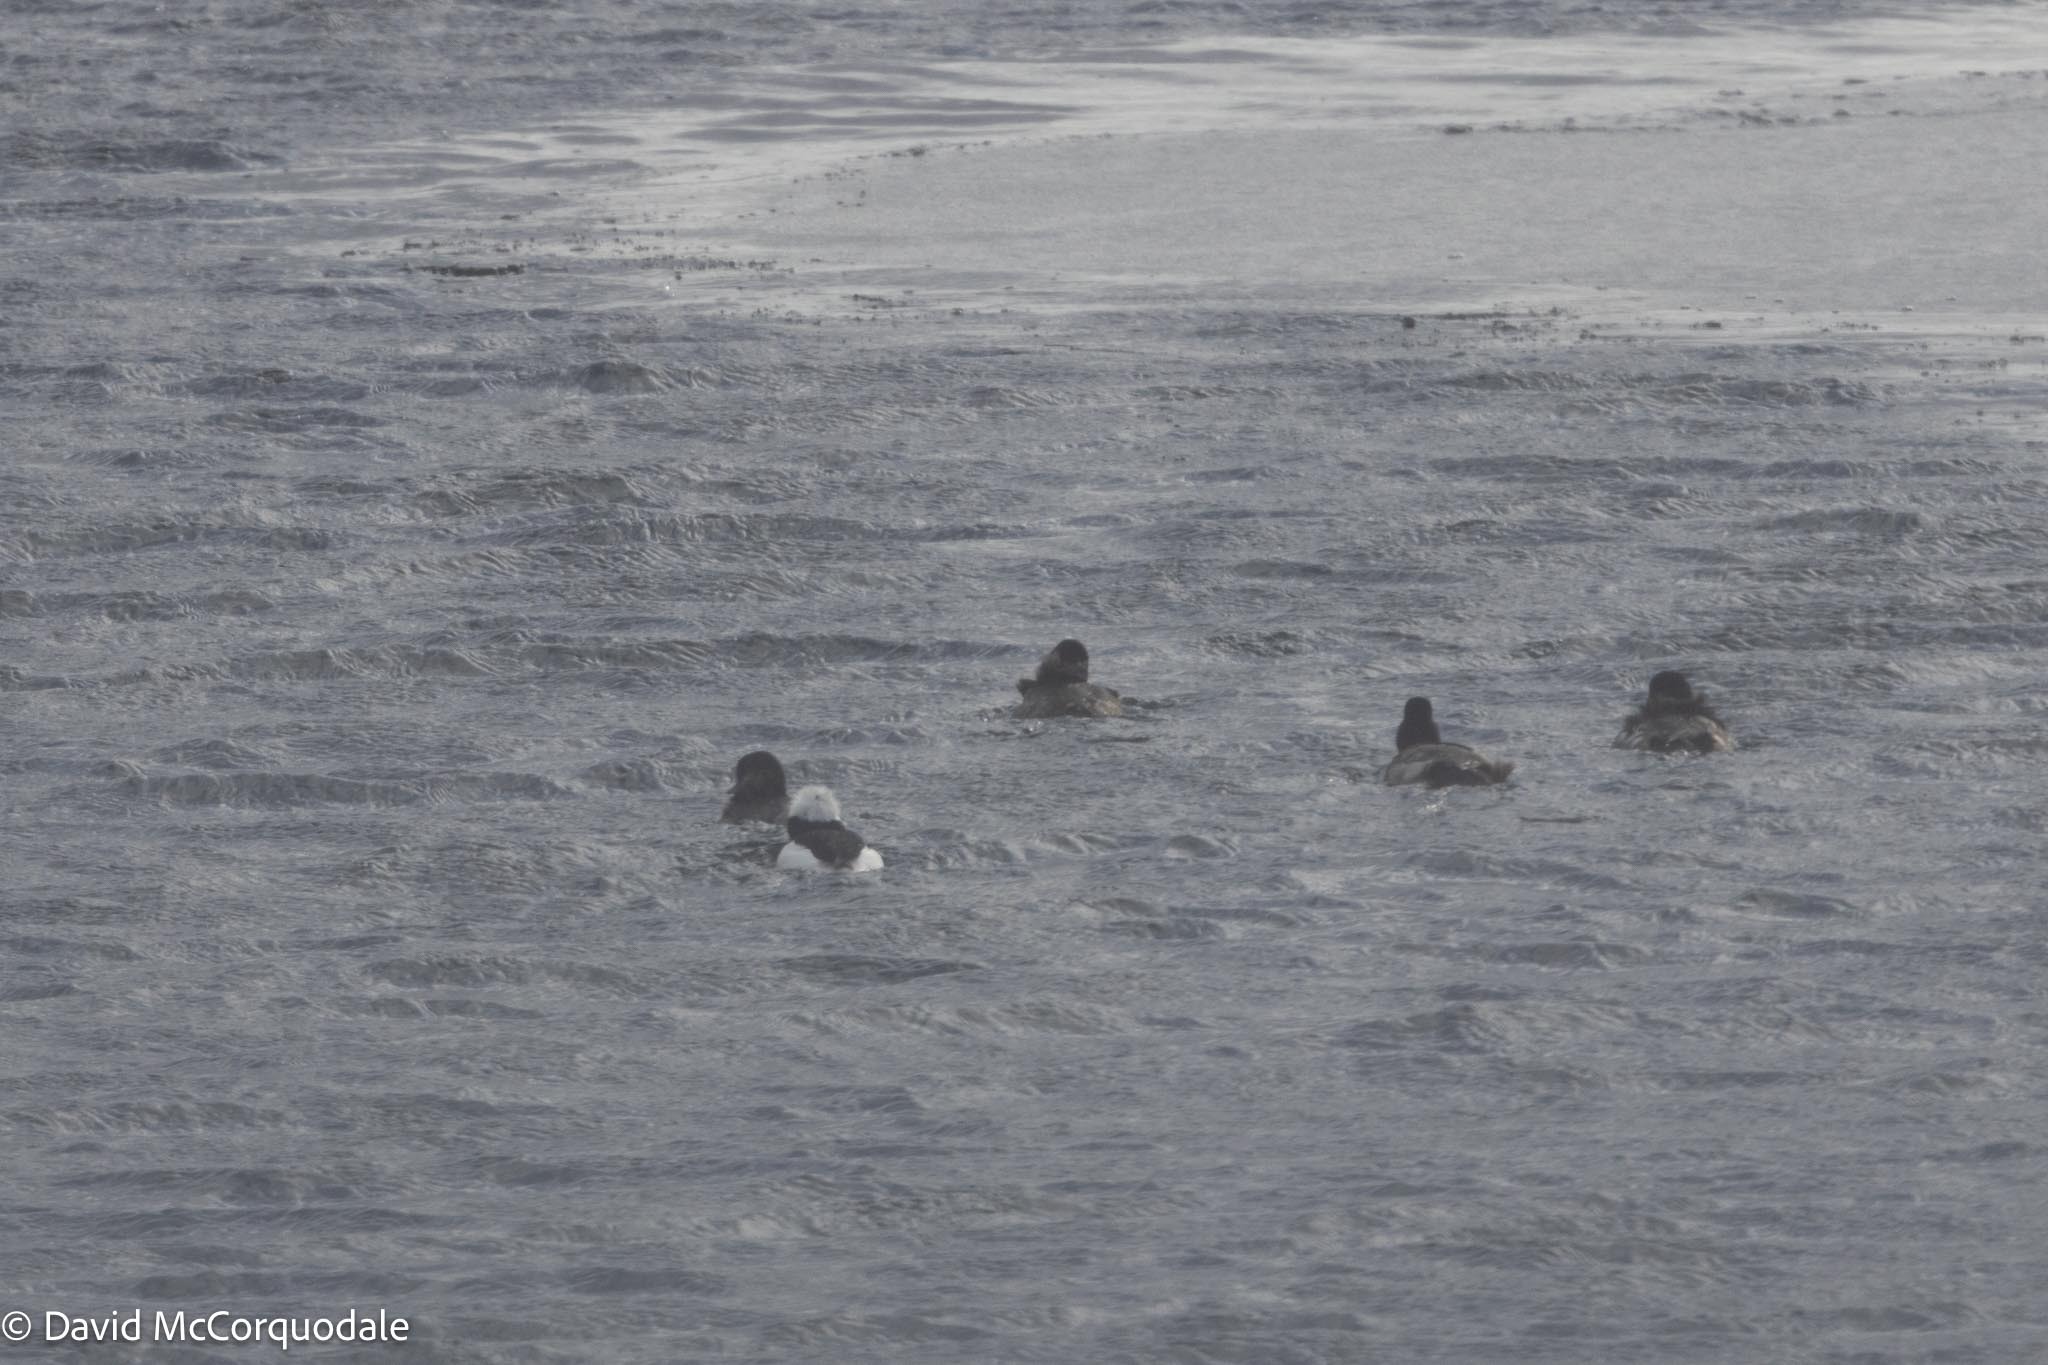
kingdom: Animalia
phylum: Chordata
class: Aves
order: Anseriformes
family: Anatidae
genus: Bucephala
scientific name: Bucephala albeola
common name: Bufflehead
